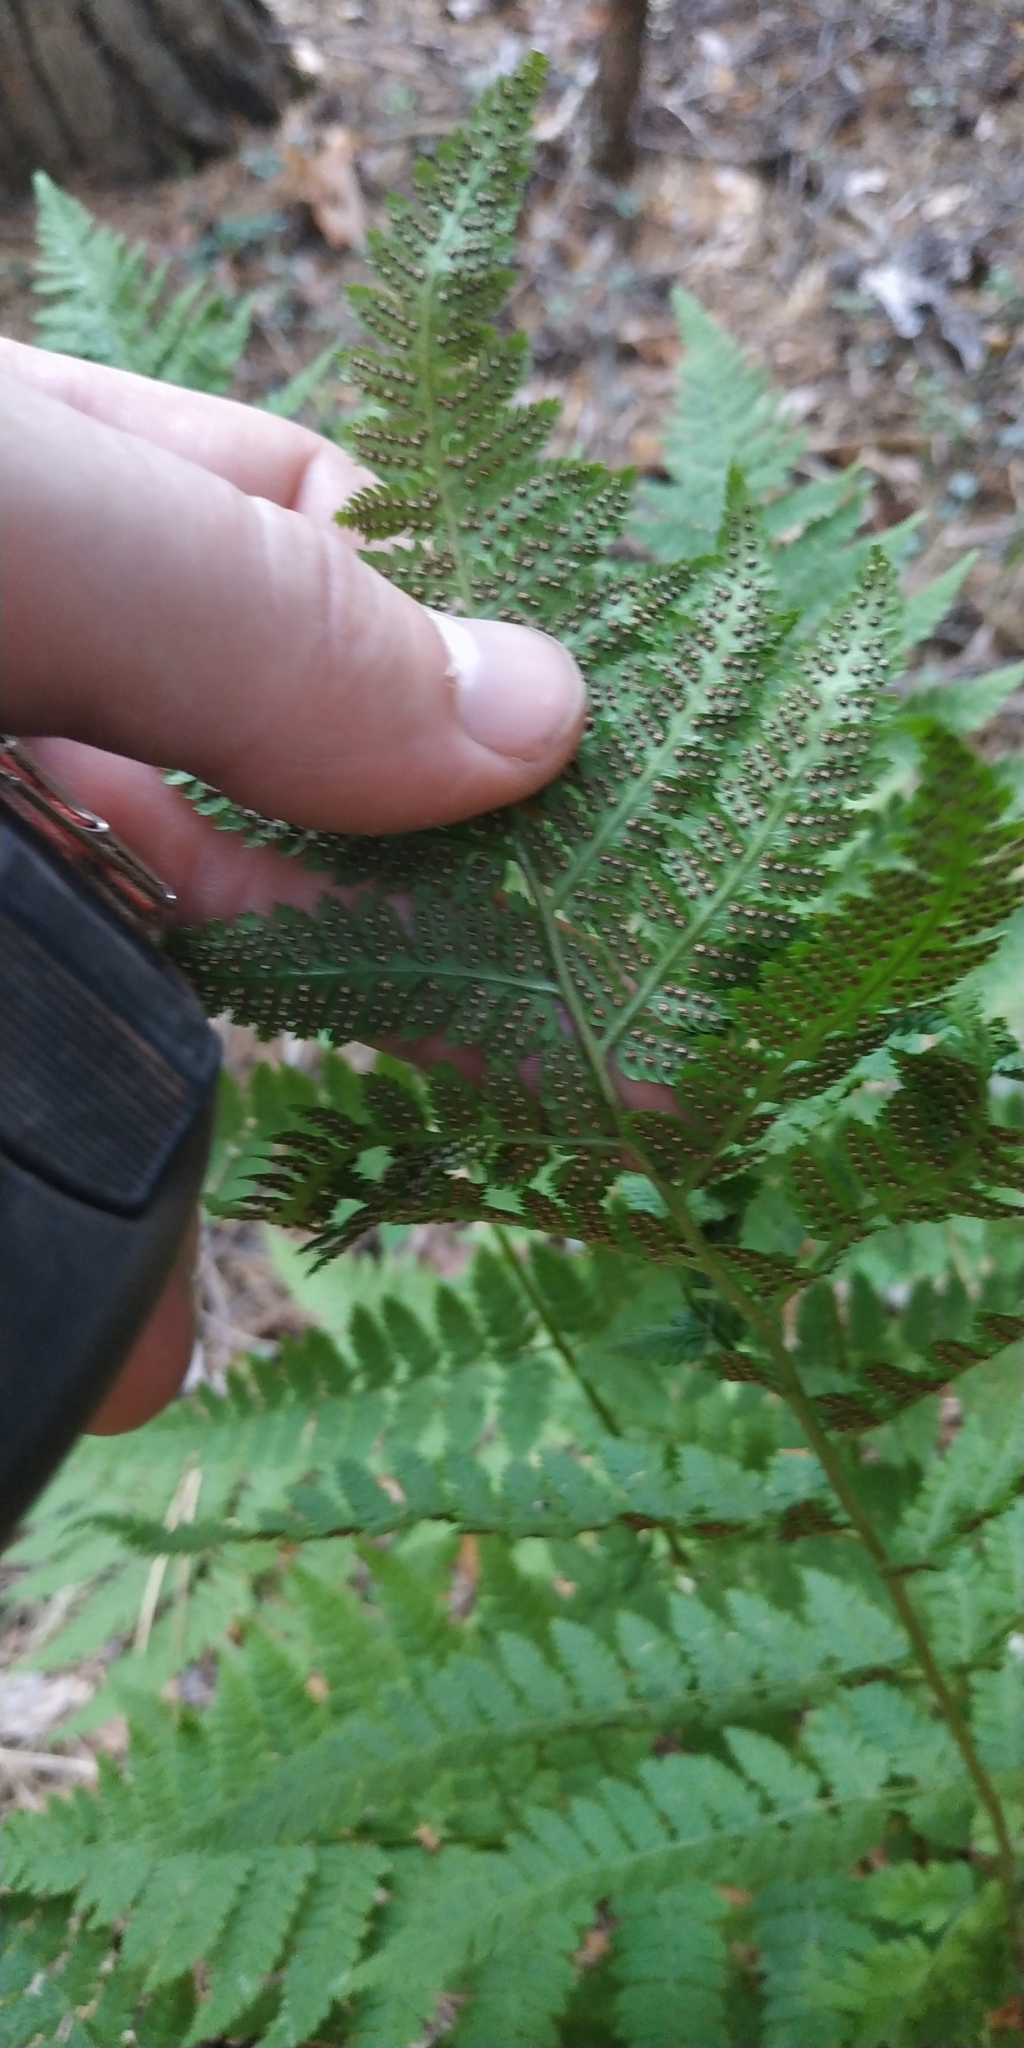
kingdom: Plantae
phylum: Tracheophyta
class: Polypodiopsida
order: Polypodiales
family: Dryopteridaceae
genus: Dryopteris
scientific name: Dryopteris carthusiana
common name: Narrow buckler-fern
